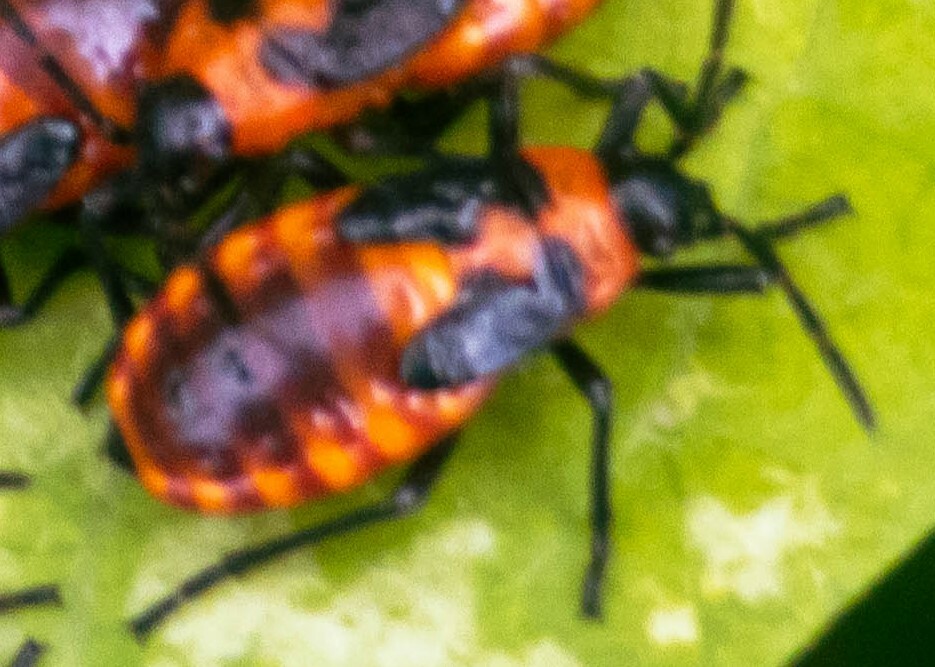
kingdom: Animalia
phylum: Arthropoda
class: Insecta
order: Hemiptera
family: Lygaeidae
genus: Tropidothorax
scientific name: Tropidothorax leucopterus
